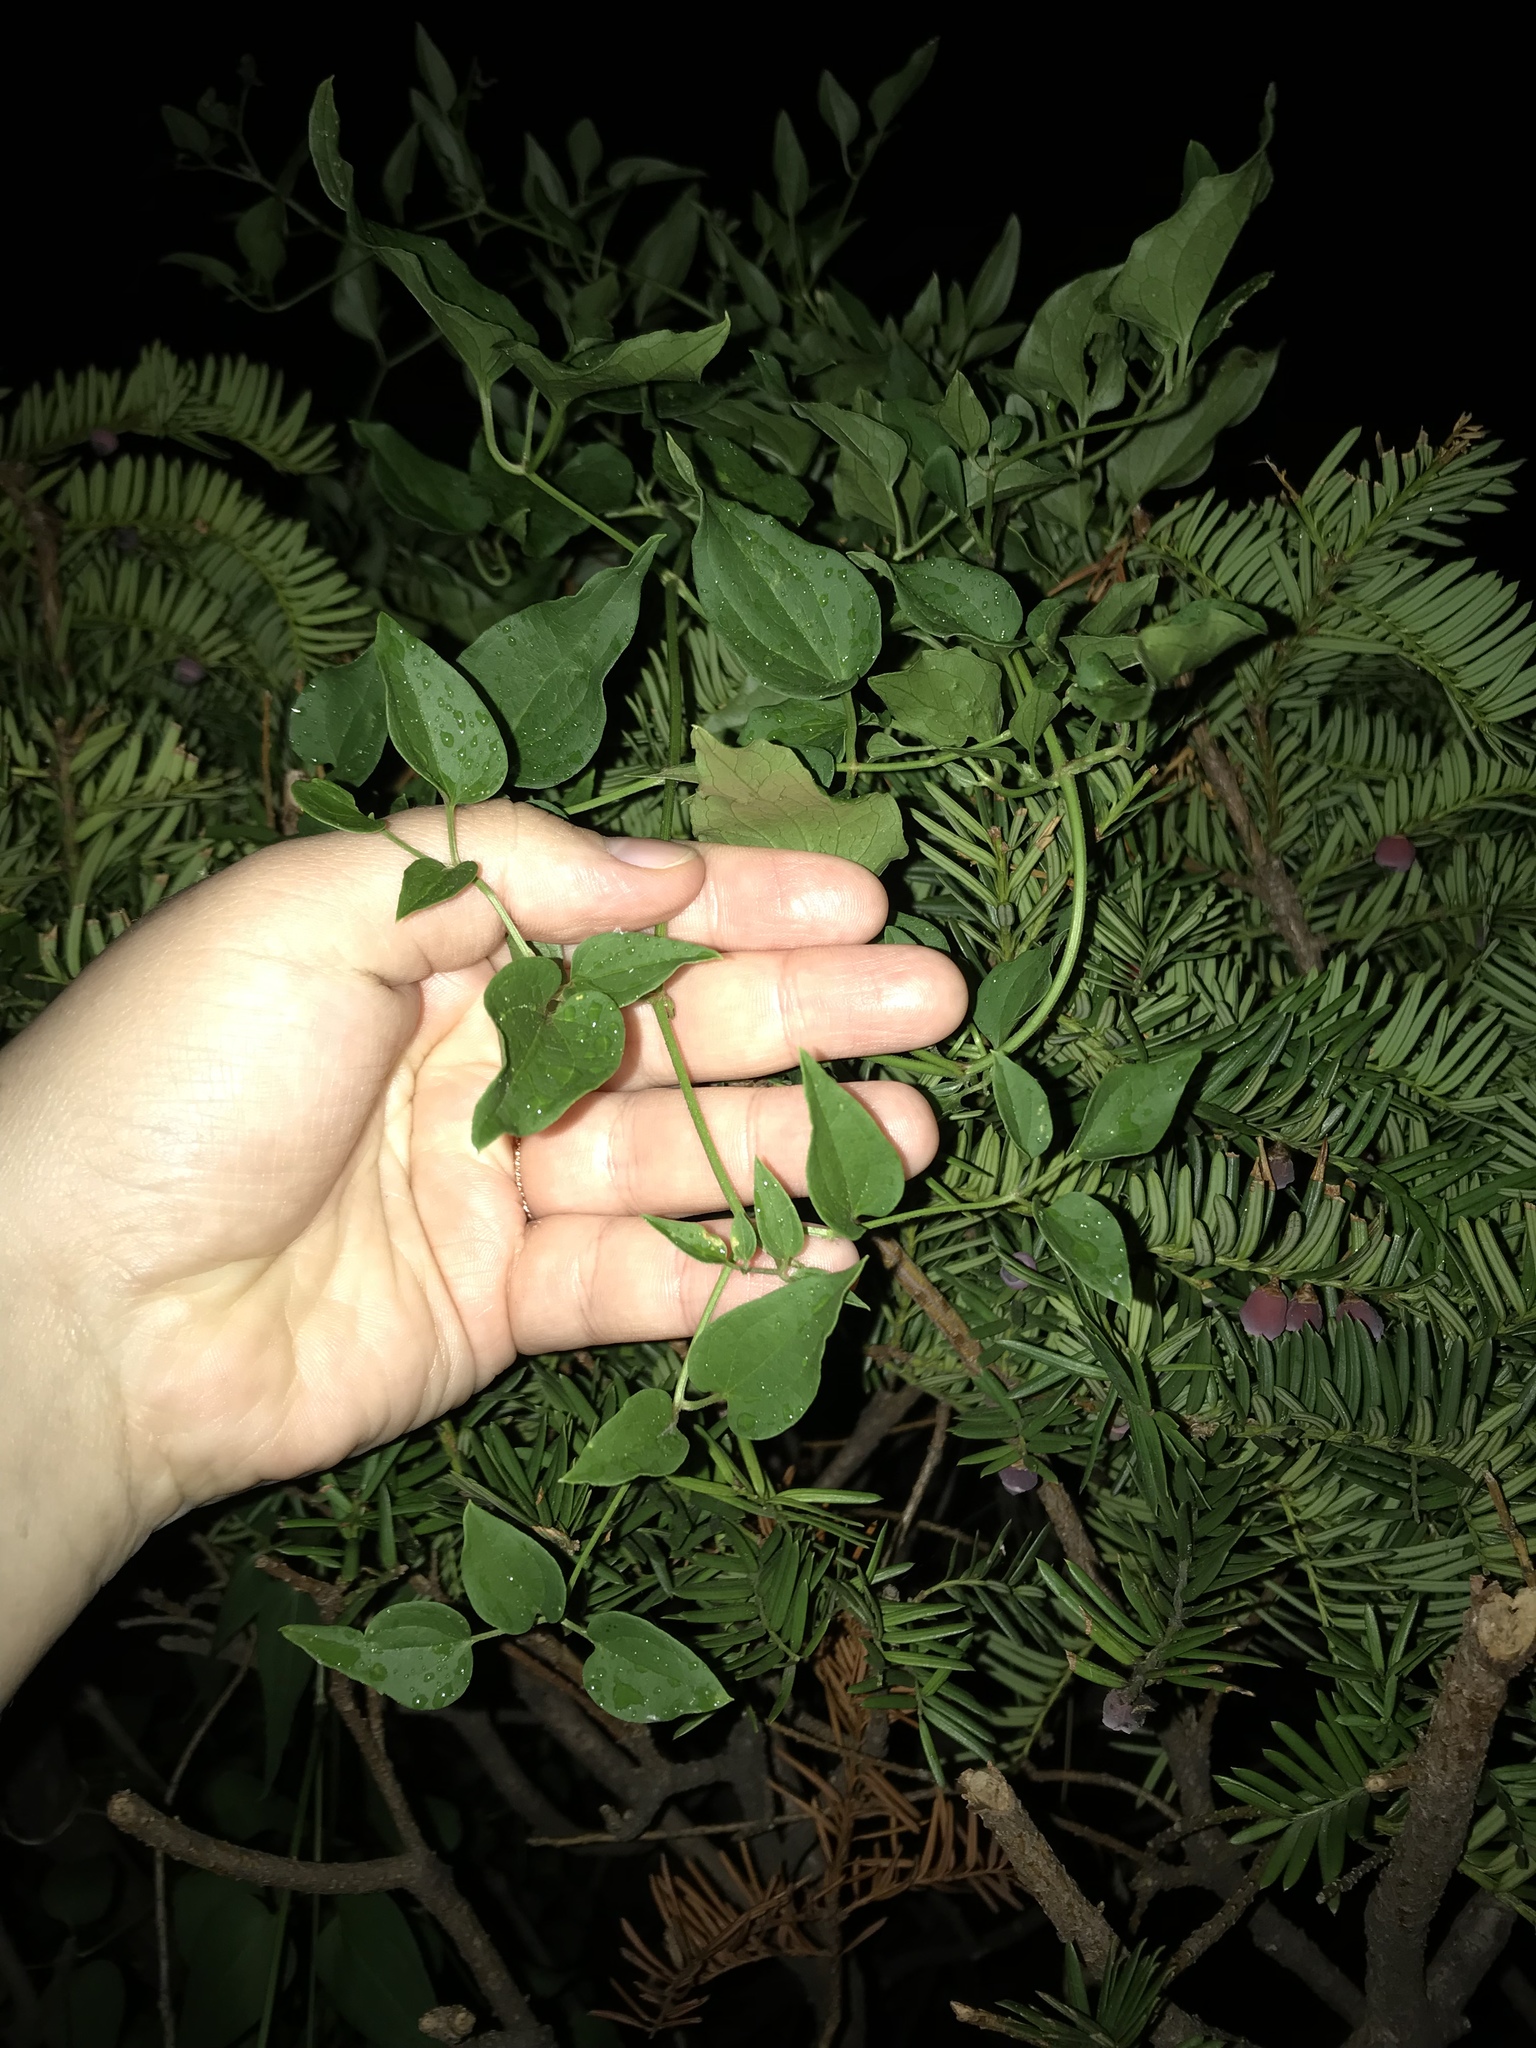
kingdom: Plantae
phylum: Tracheophyta
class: Magnoliopsida
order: Ranunculales
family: Ranunculaceae
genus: Clematis
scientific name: Clematis terniflora
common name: Sweet autumn clematis
